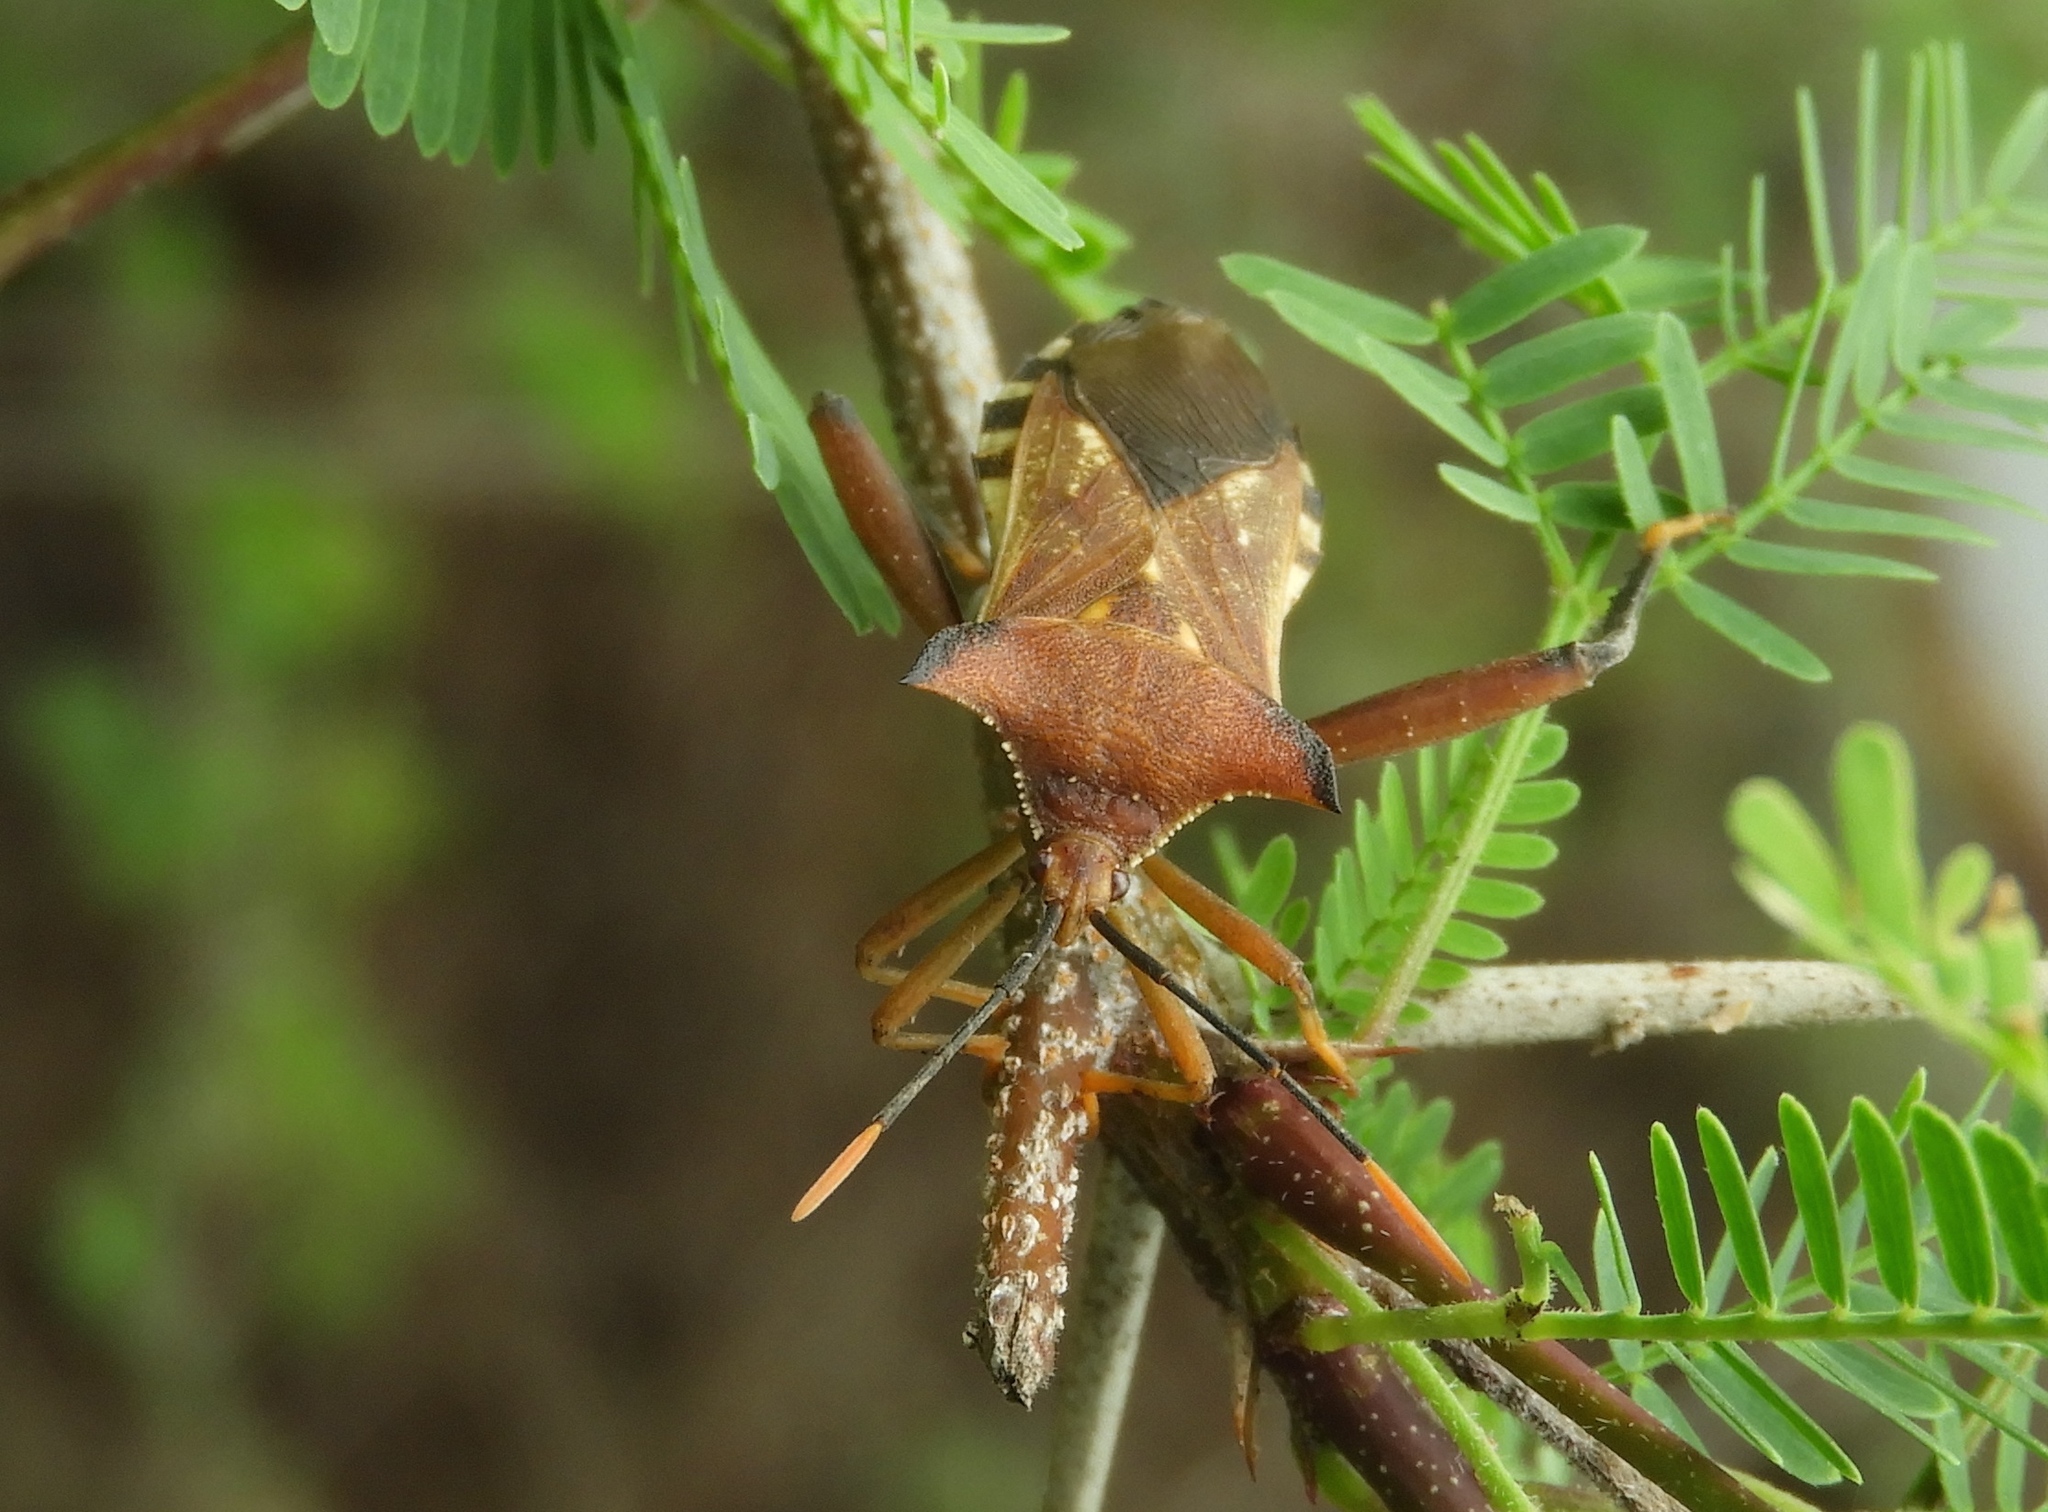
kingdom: Animalia
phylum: Arthropoda
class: Insecta
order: Hemiptera
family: Coreidae
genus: Mozena
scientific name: Mozena lunata
